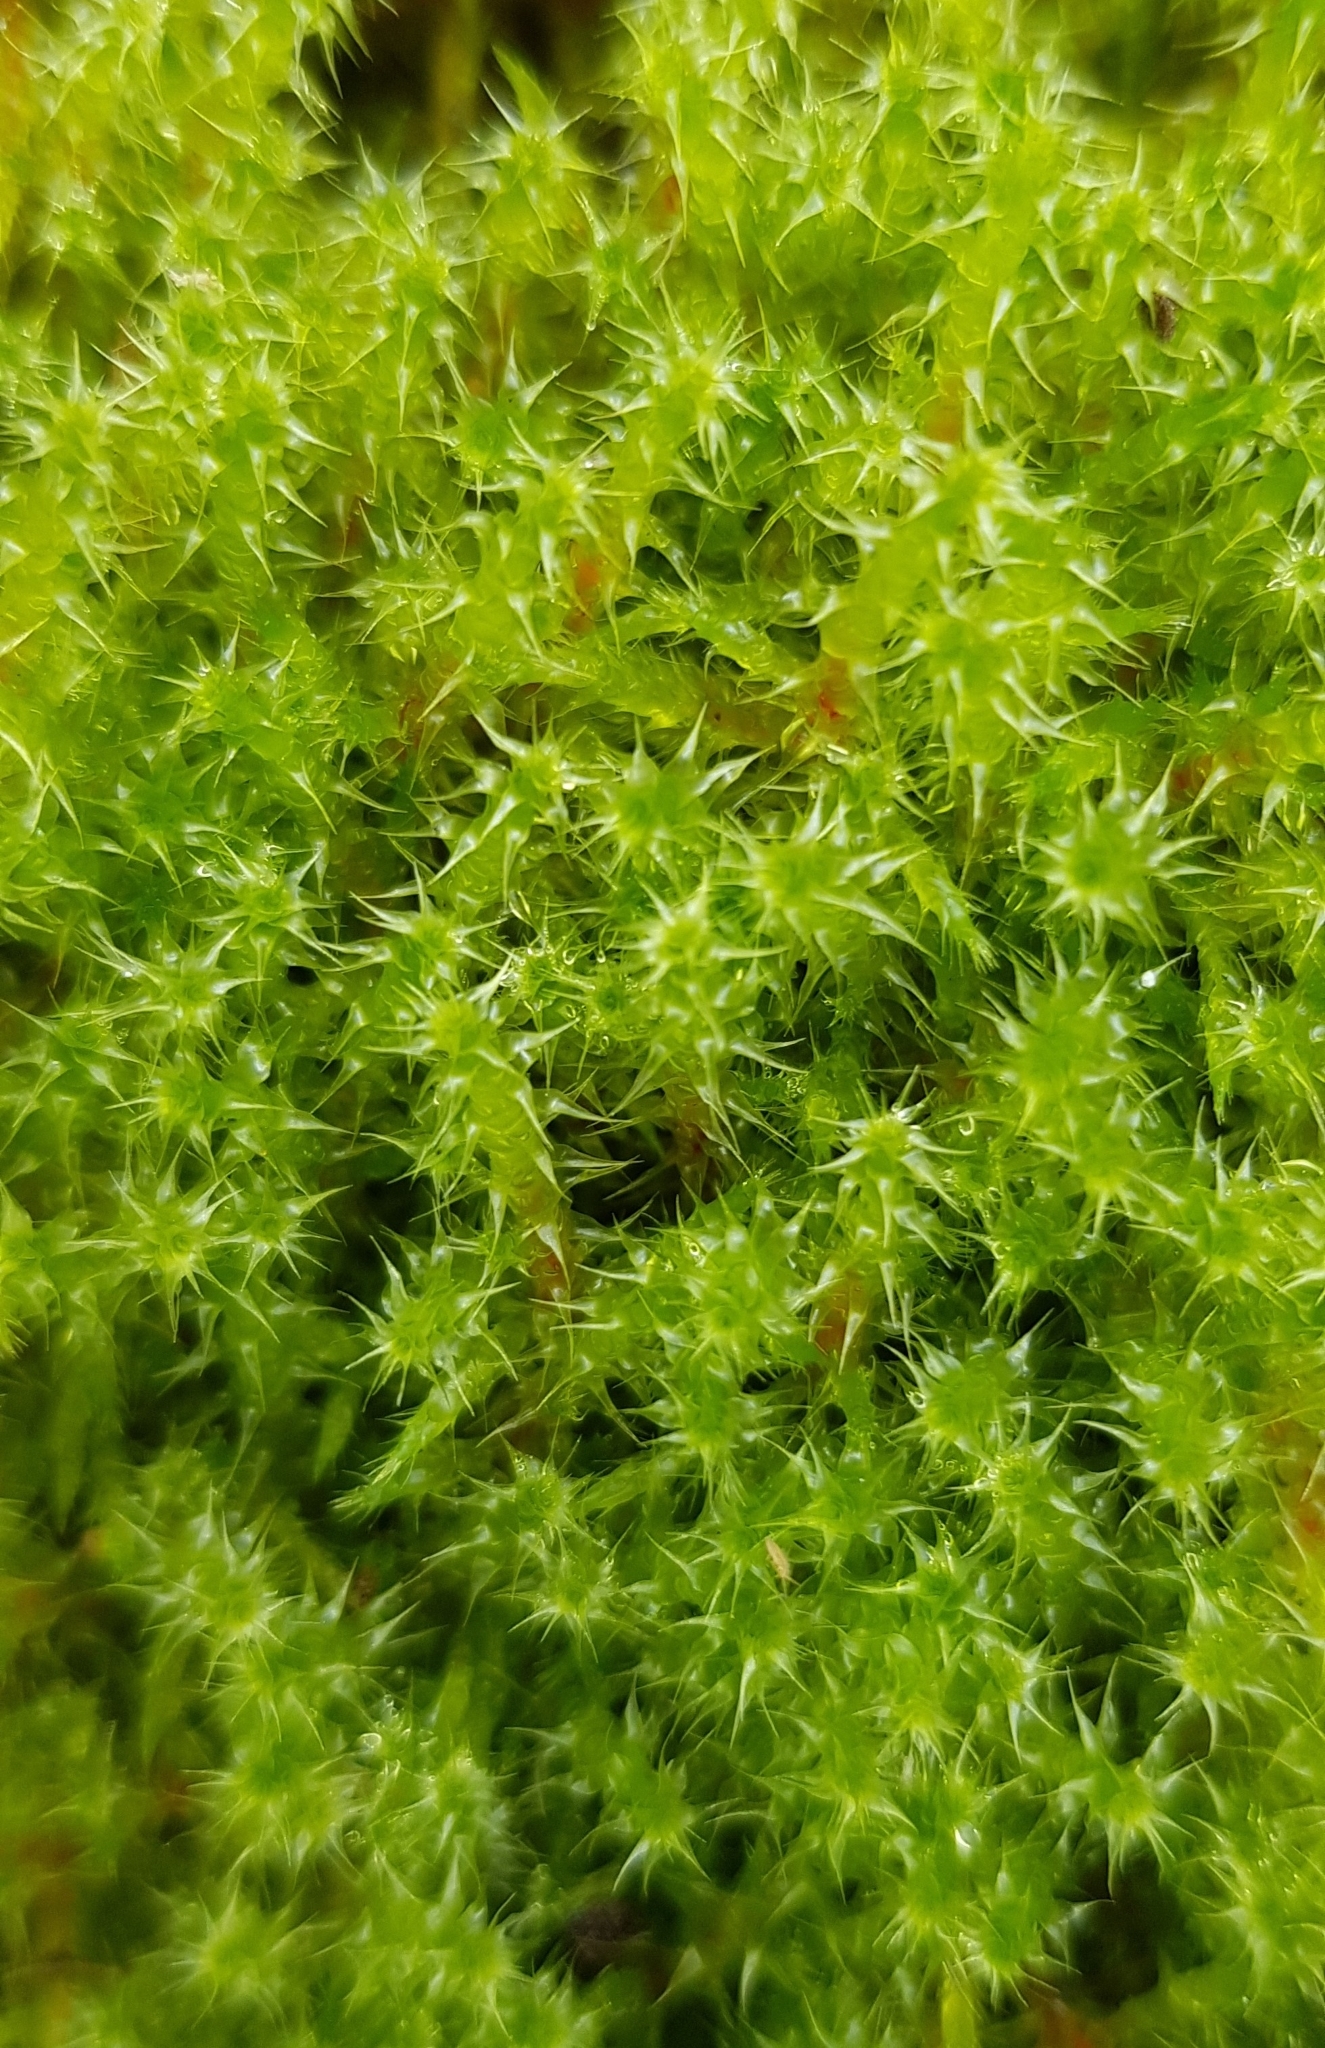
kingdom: Plantae
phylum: Bryophyta
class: Bryopsida
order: Hypnales
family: Hylocomiaceae
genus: Rhytidiadelphus
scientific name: Rhytidiadelphus squarrosus
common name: Springy turf-moss
